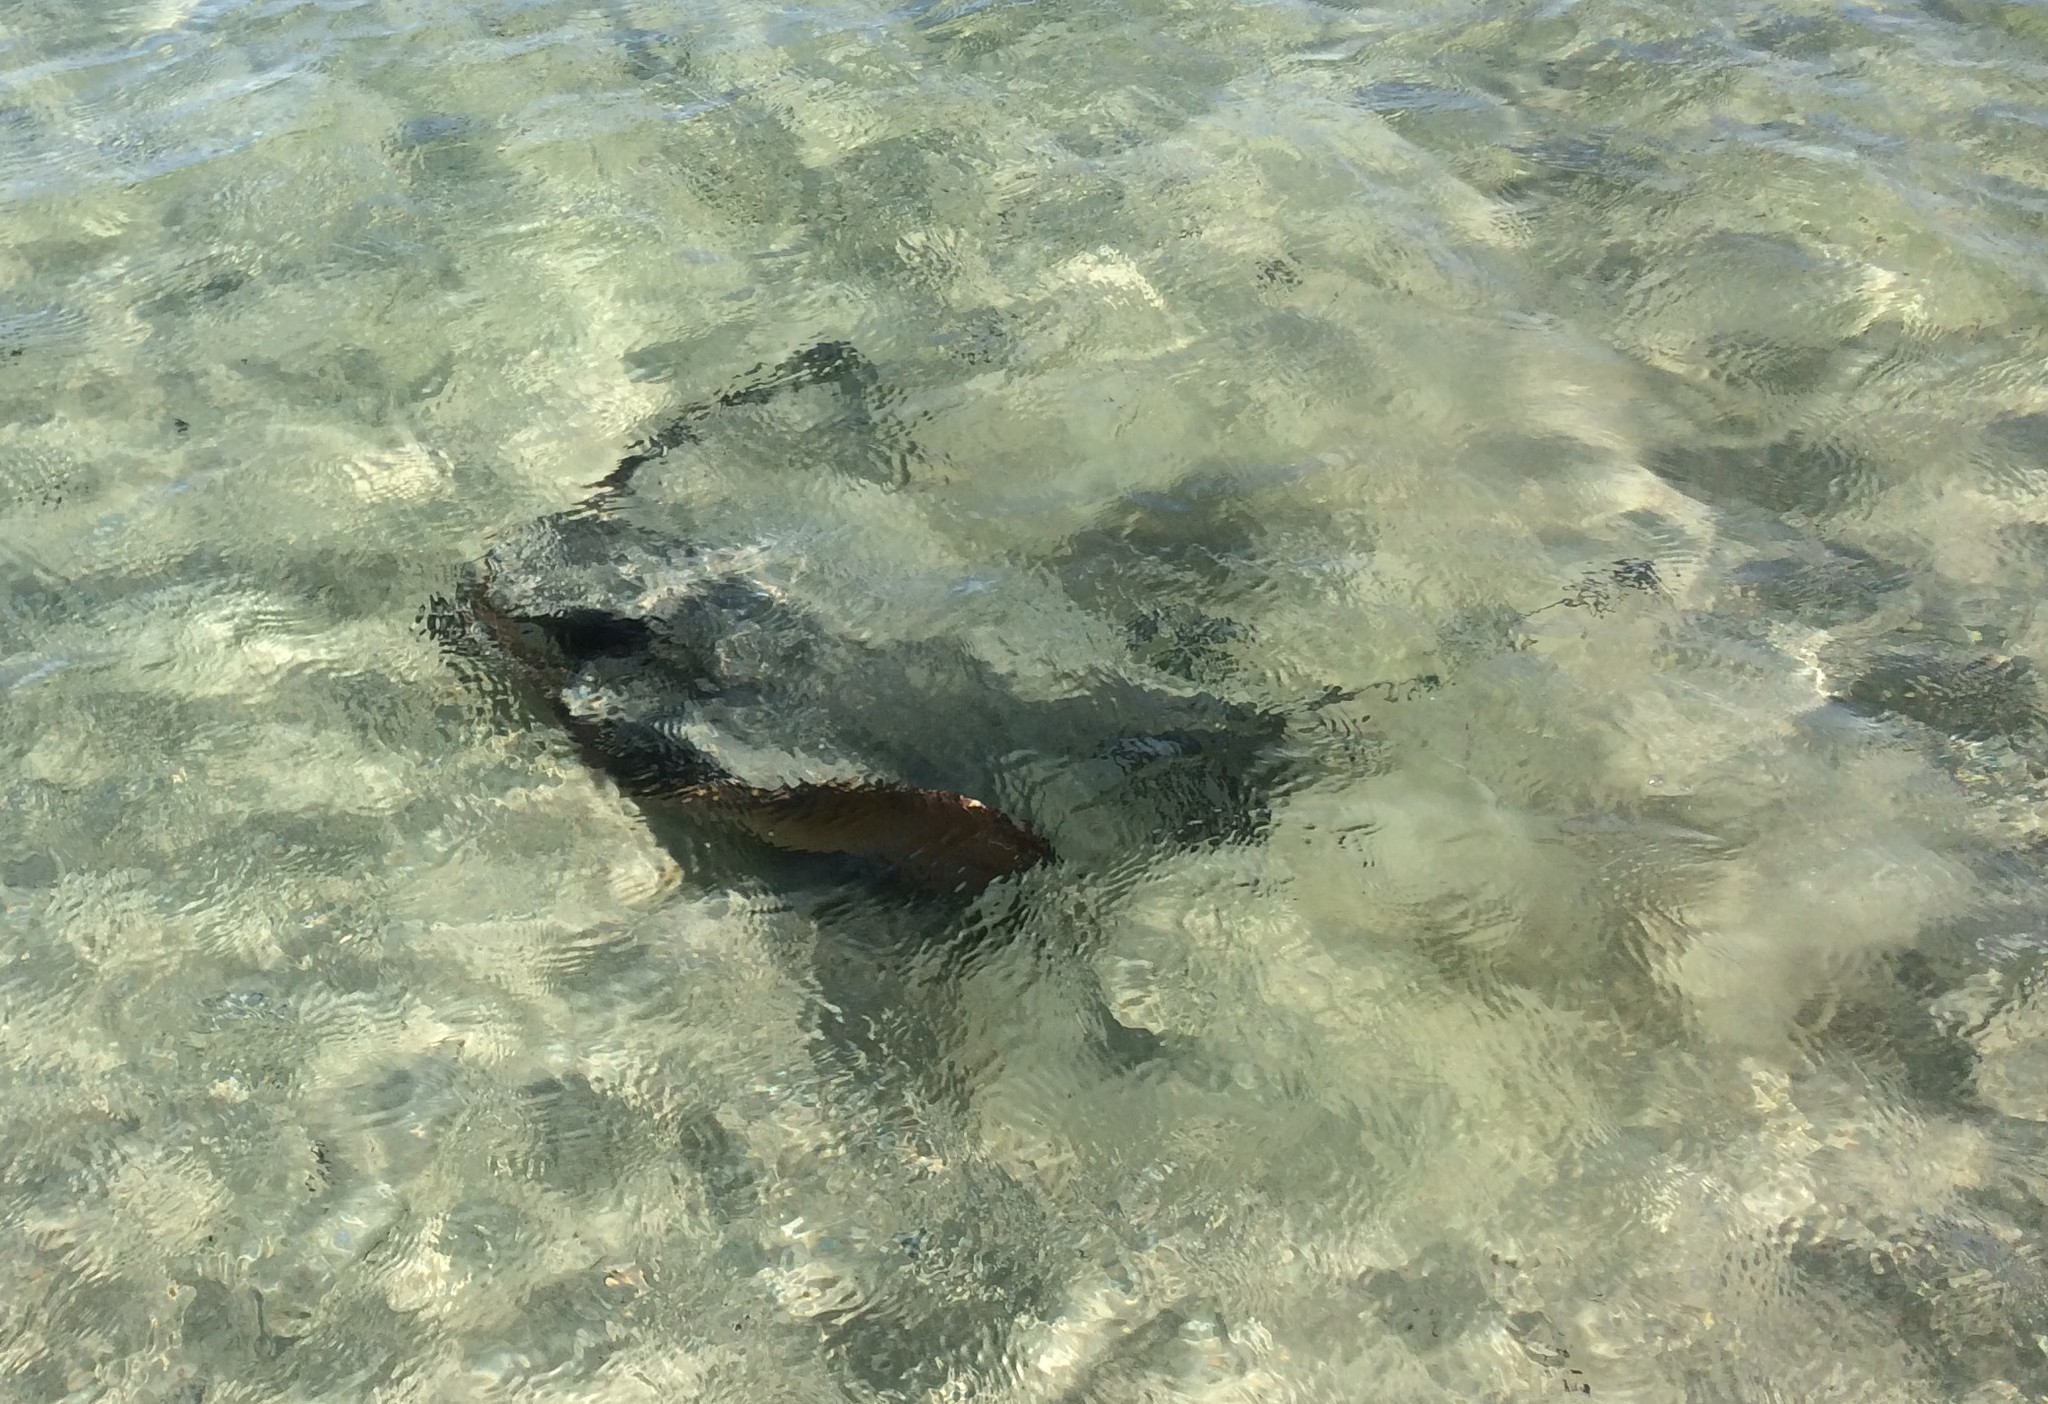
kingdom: Animalia
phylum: Chordata
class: Elasmobranchii
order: Myliobatiformes
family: Myliobatidae
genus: Myliobatis
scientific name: Myliobatis tenuicaudatus
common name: Eagle ray
